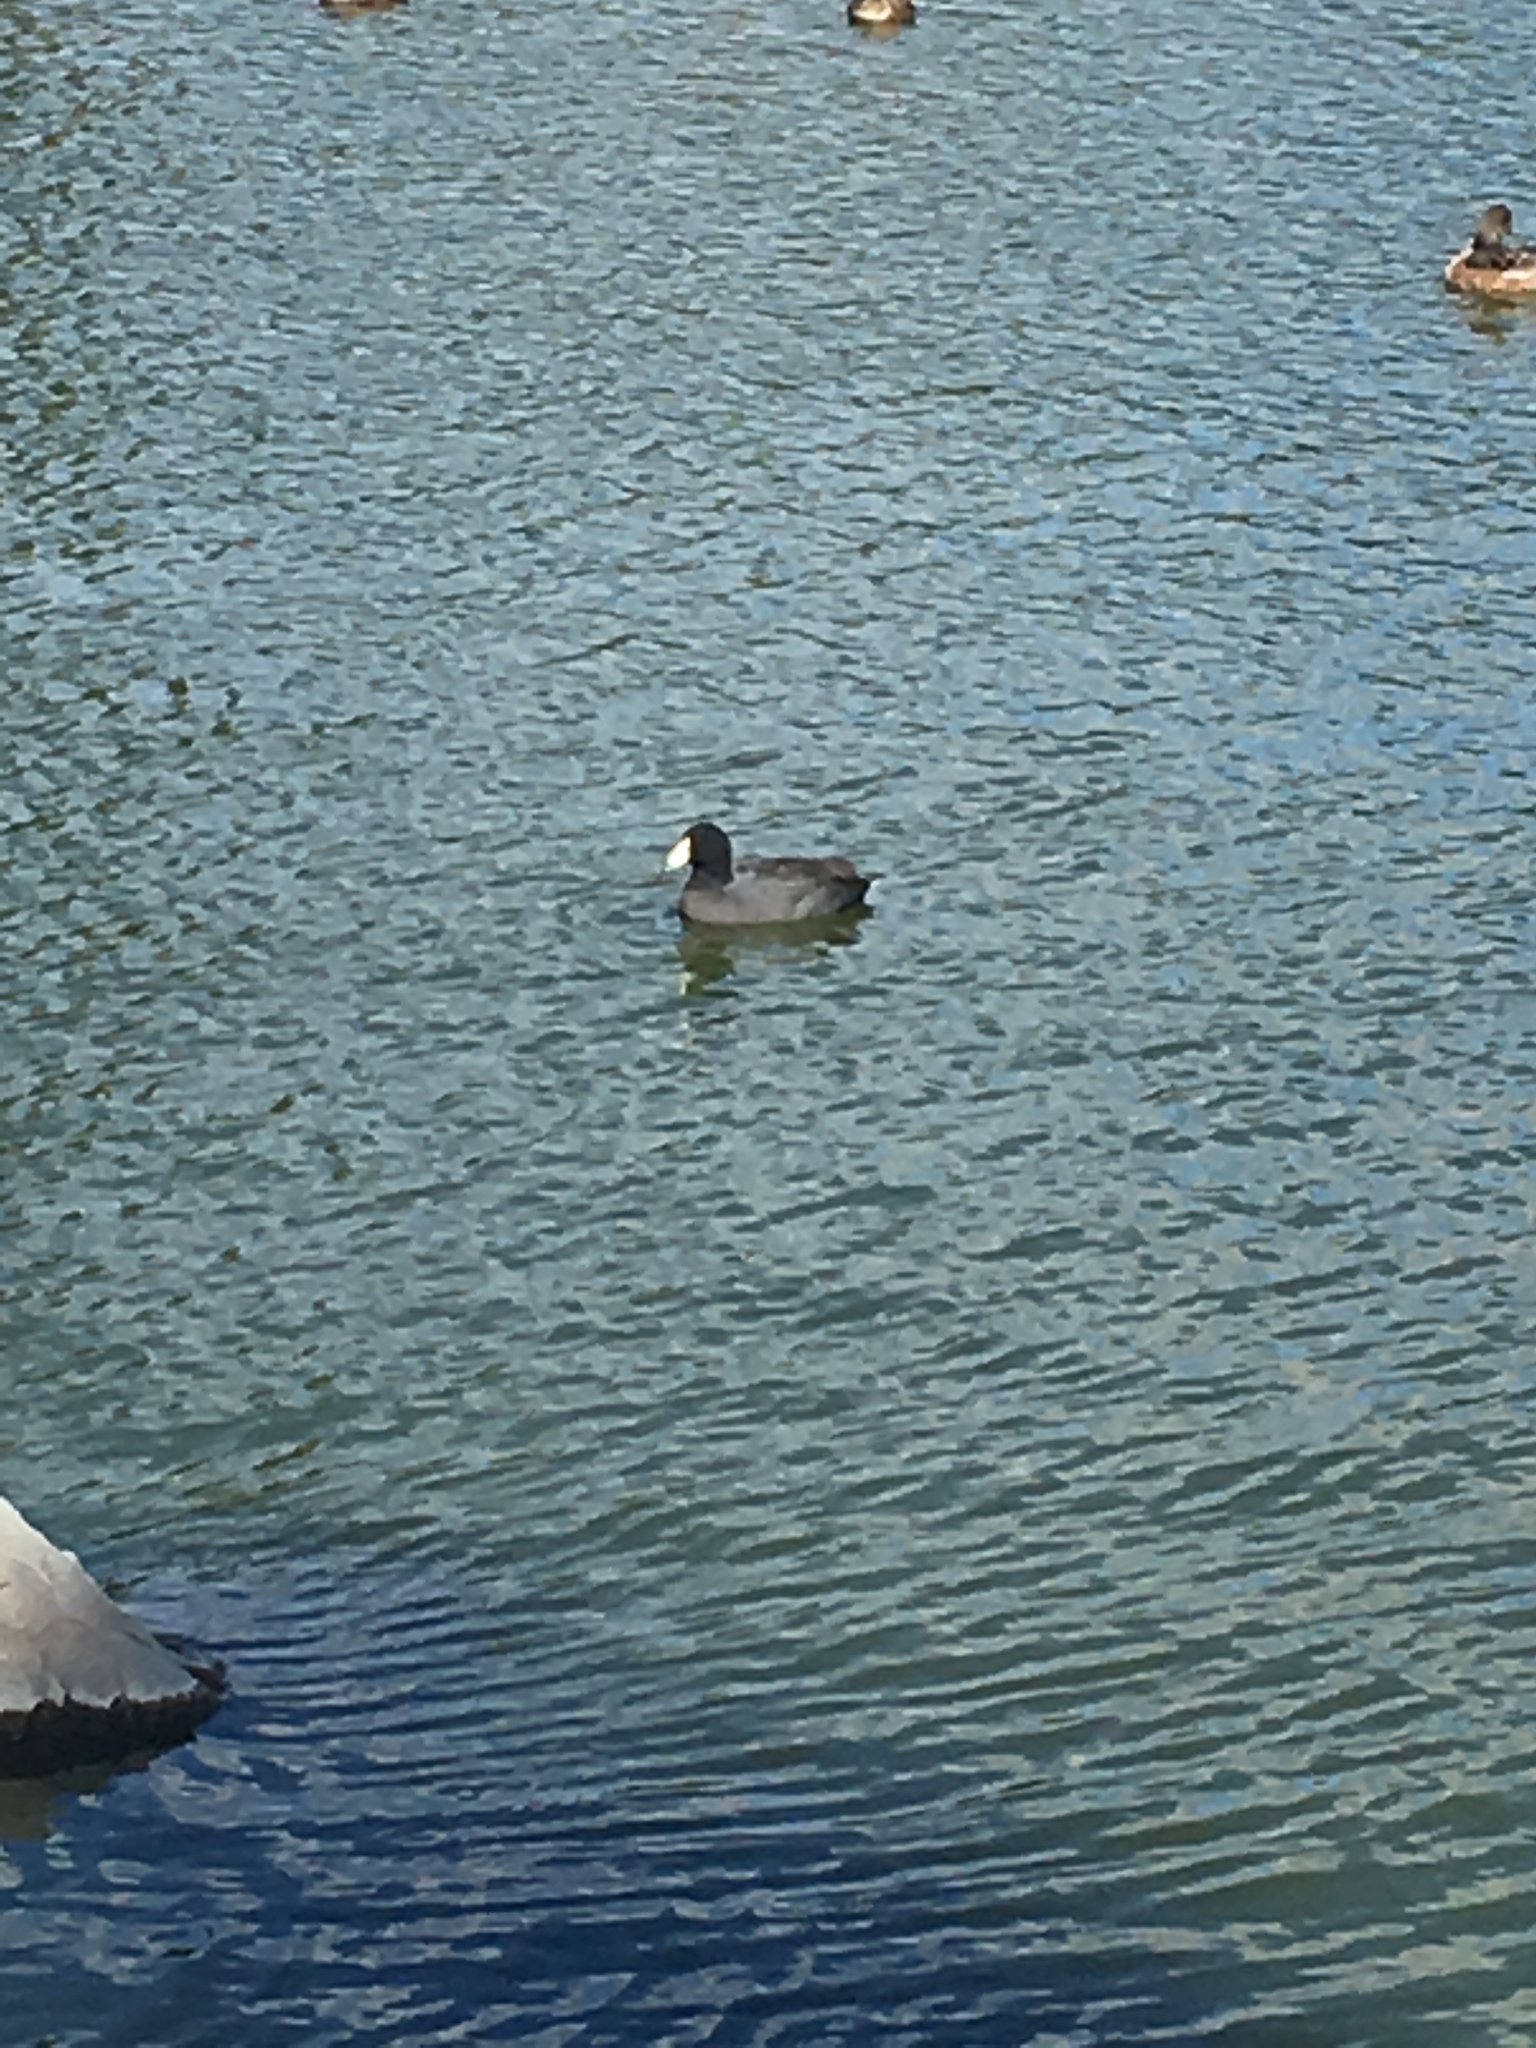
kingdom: Animalia
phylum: Chordata
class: Aves
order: Gruiformes
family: Rallidae
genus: Fulica
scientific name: Fulica americana
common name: American coot
